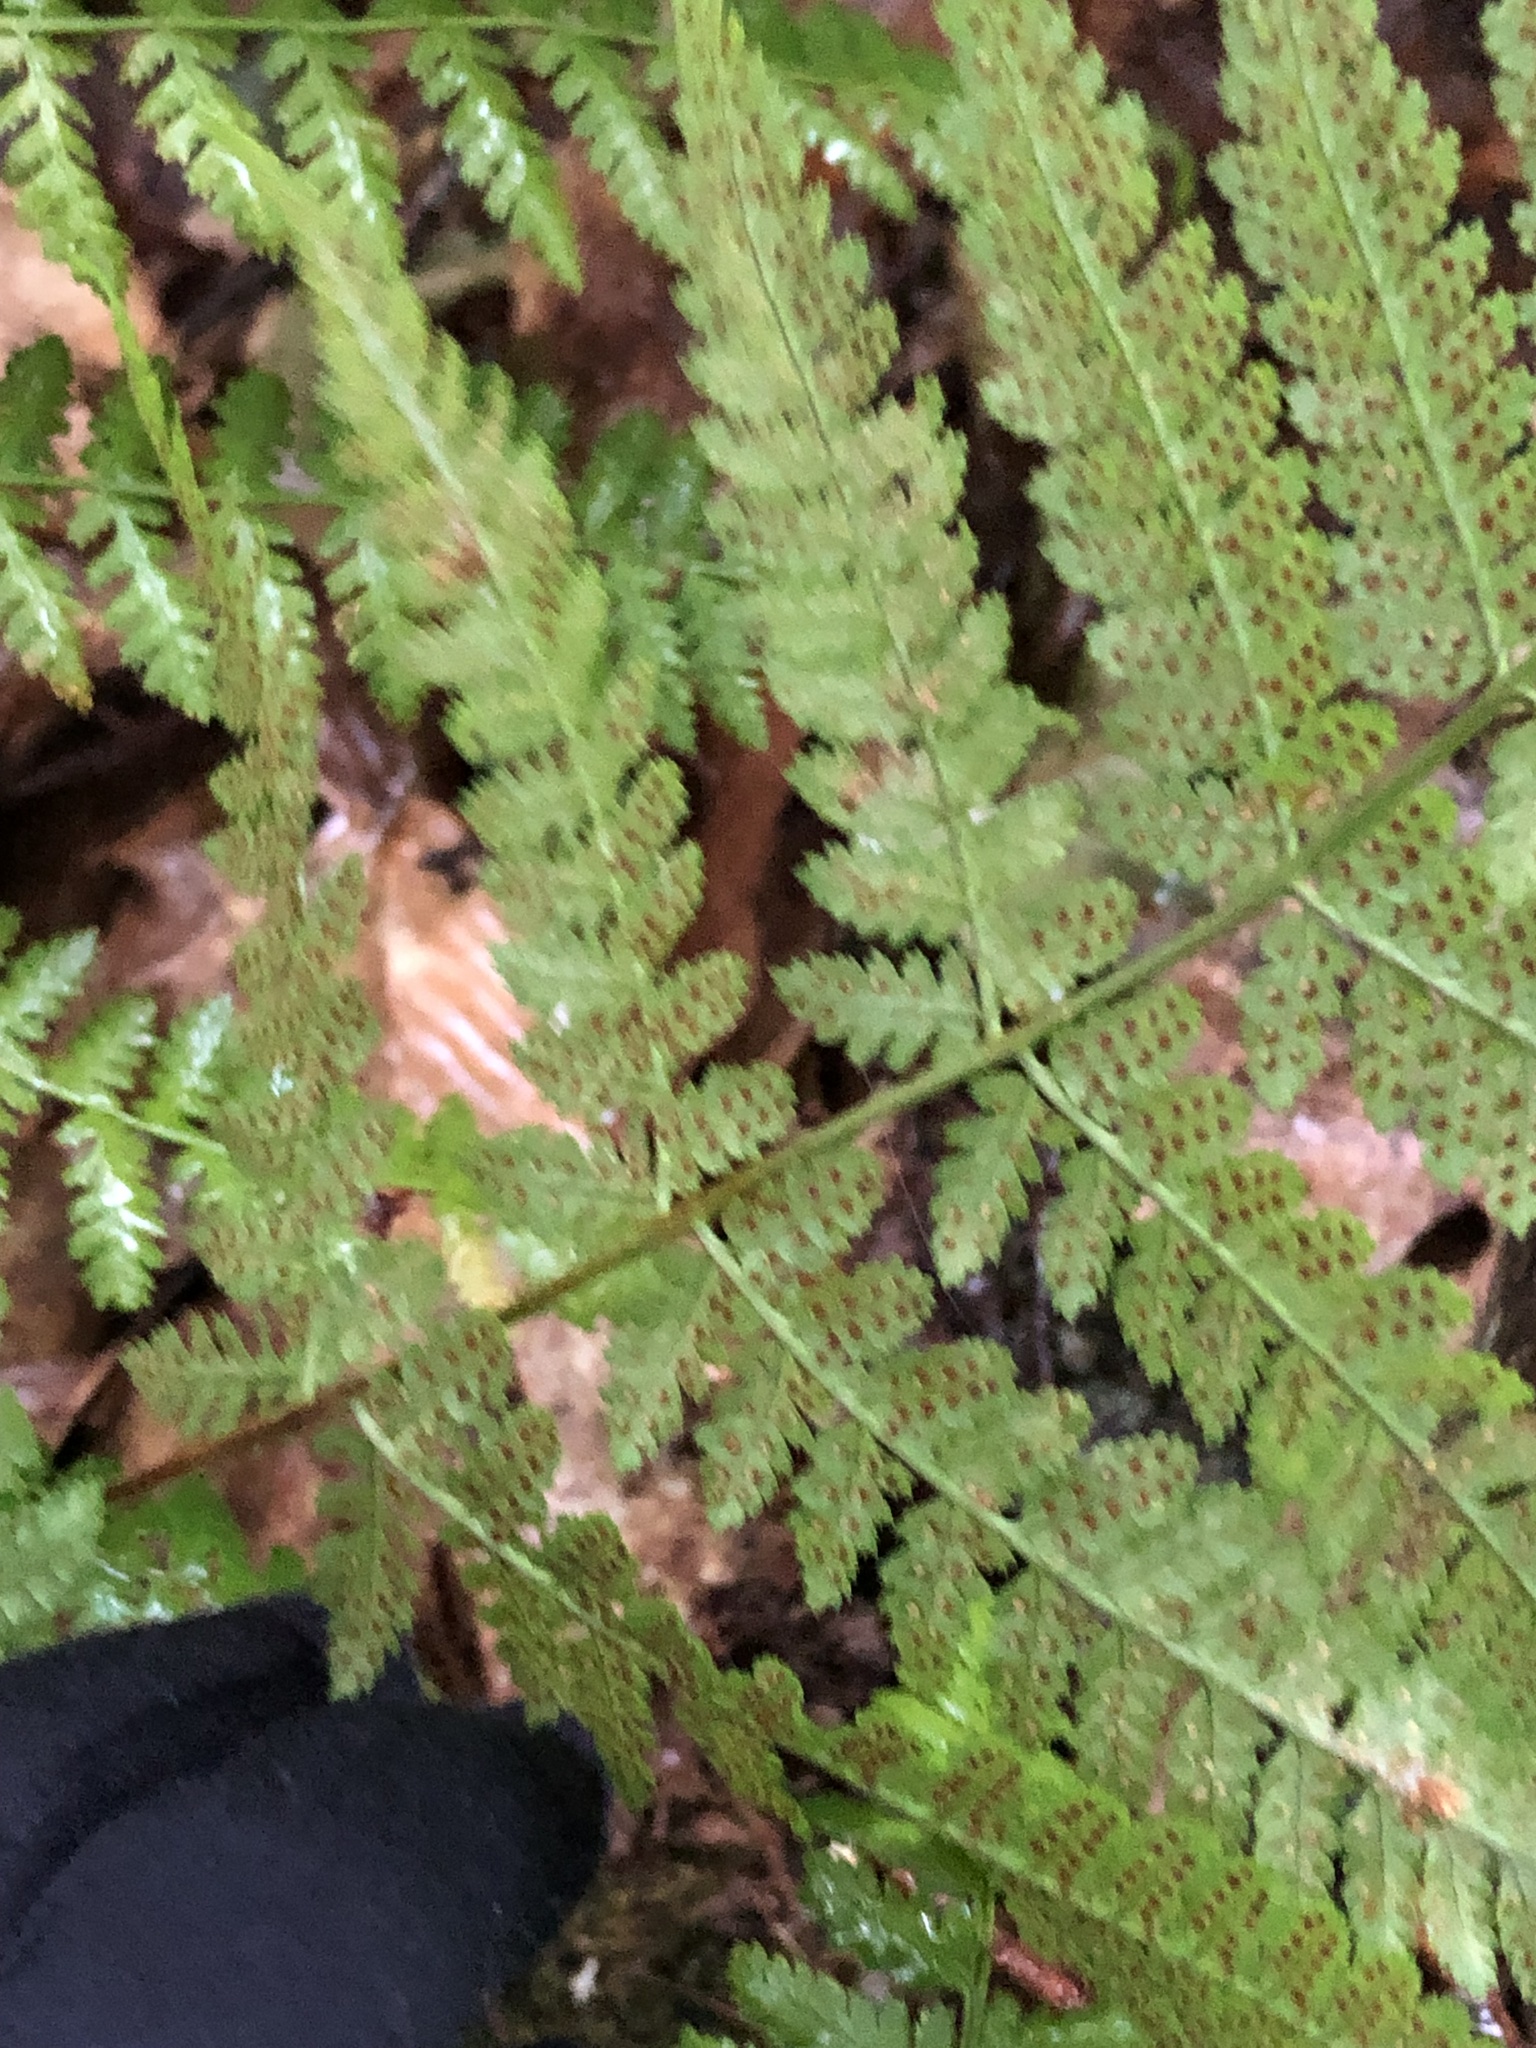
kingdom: Plantae
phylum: Tracheophyta
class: Polypodiopsida
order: Polypodiales
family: Dryopteridaceae
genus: Dryopteris
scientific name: Dryopteris intermedia
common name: Evergreen wood fern
